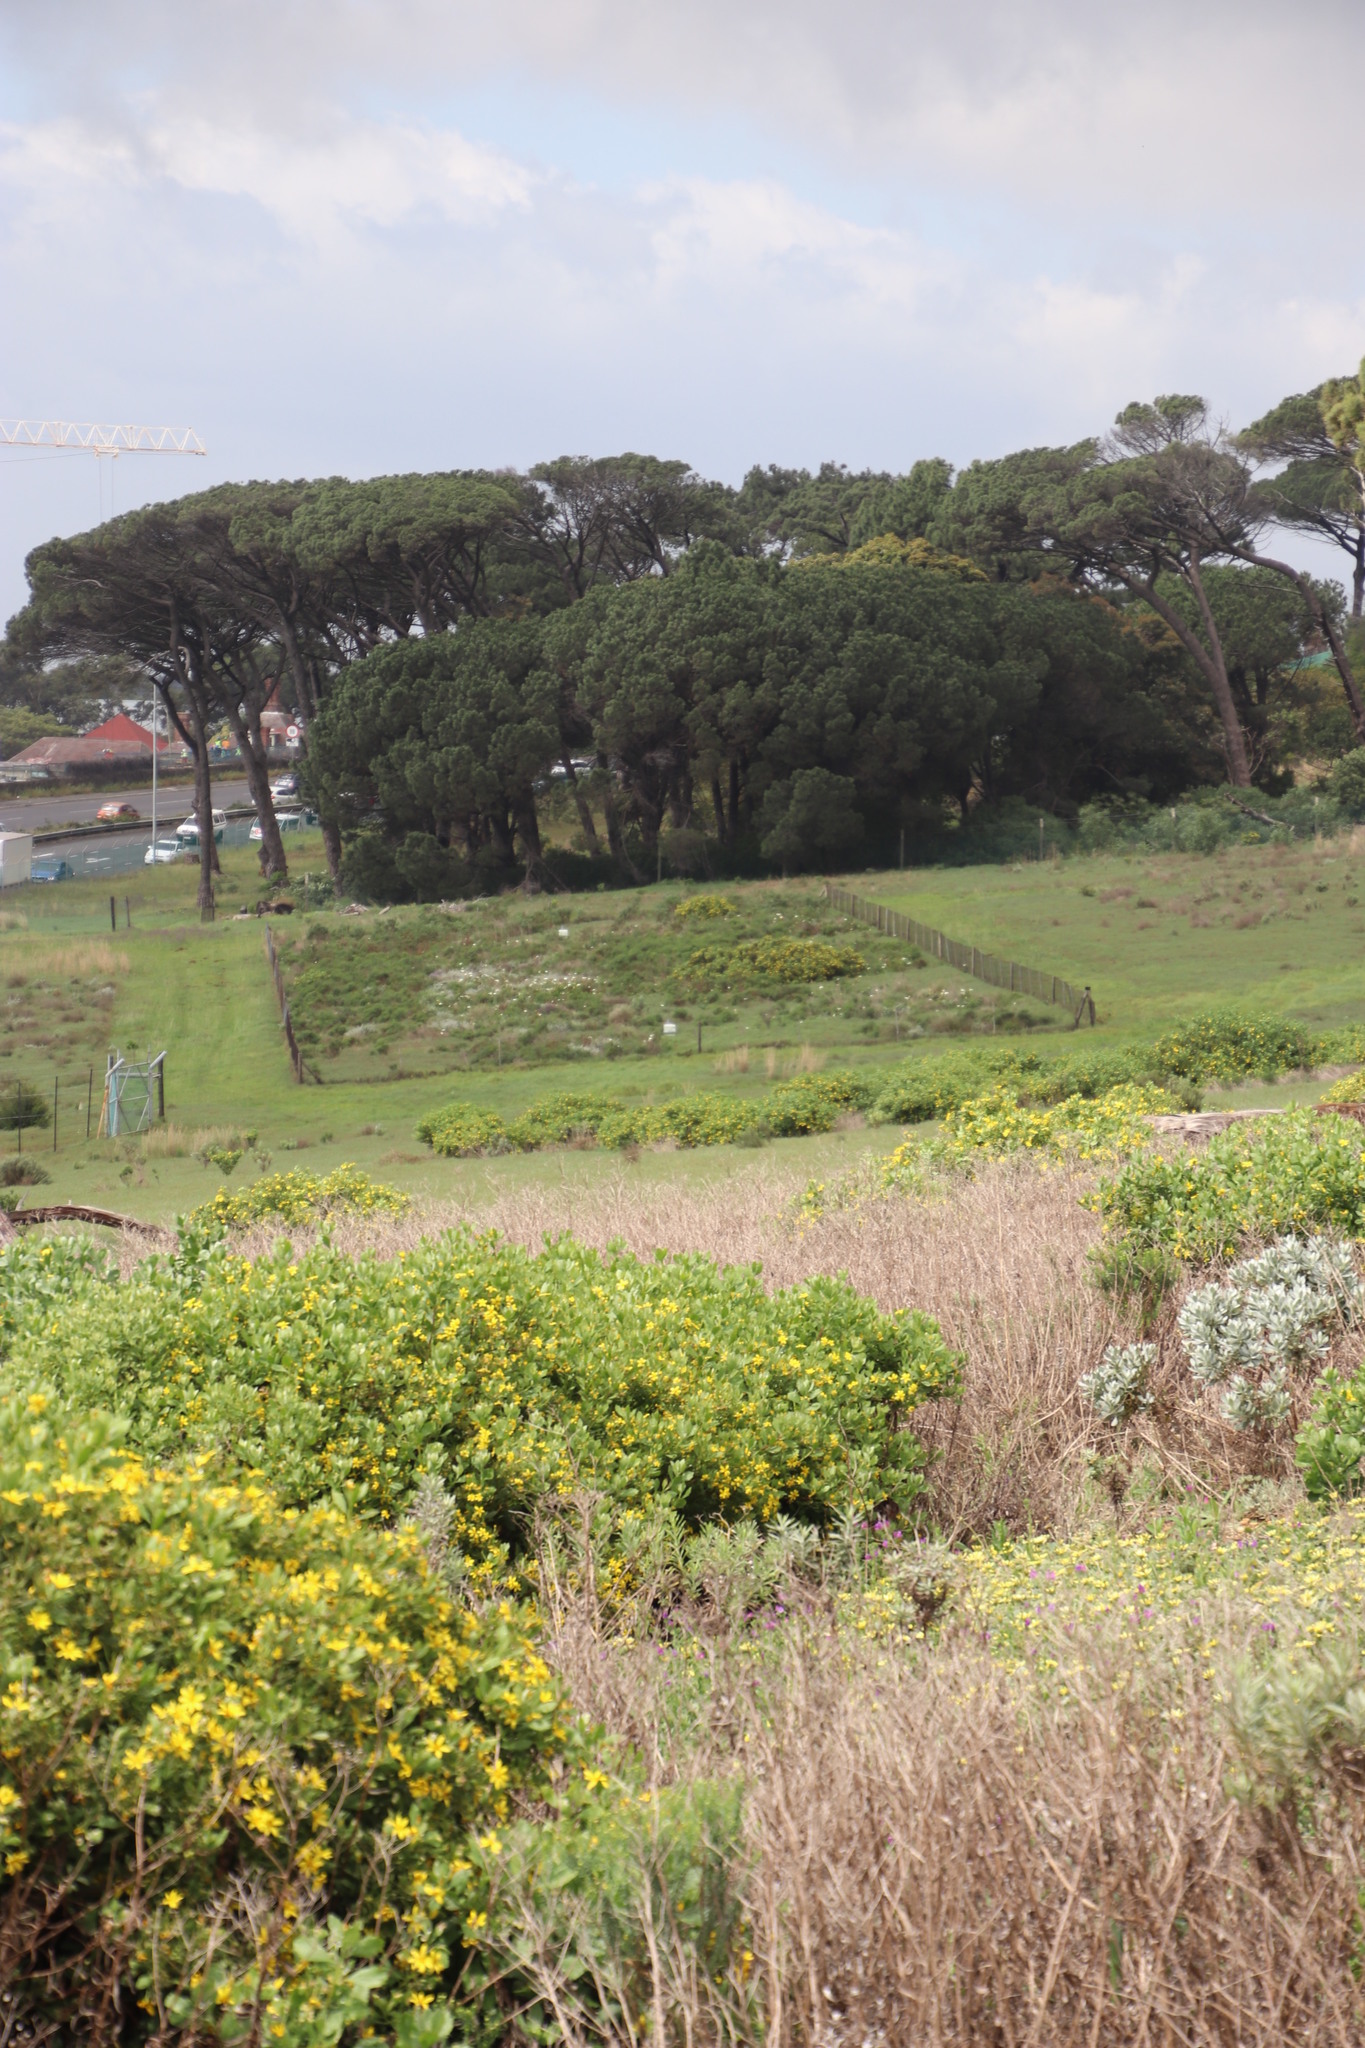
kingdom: Plantae
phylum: Tracheophyta
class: Magnoliopsida
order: Asterales
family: Asteraceae
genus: Osteospermum
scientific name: Osteospermum moniliferum
